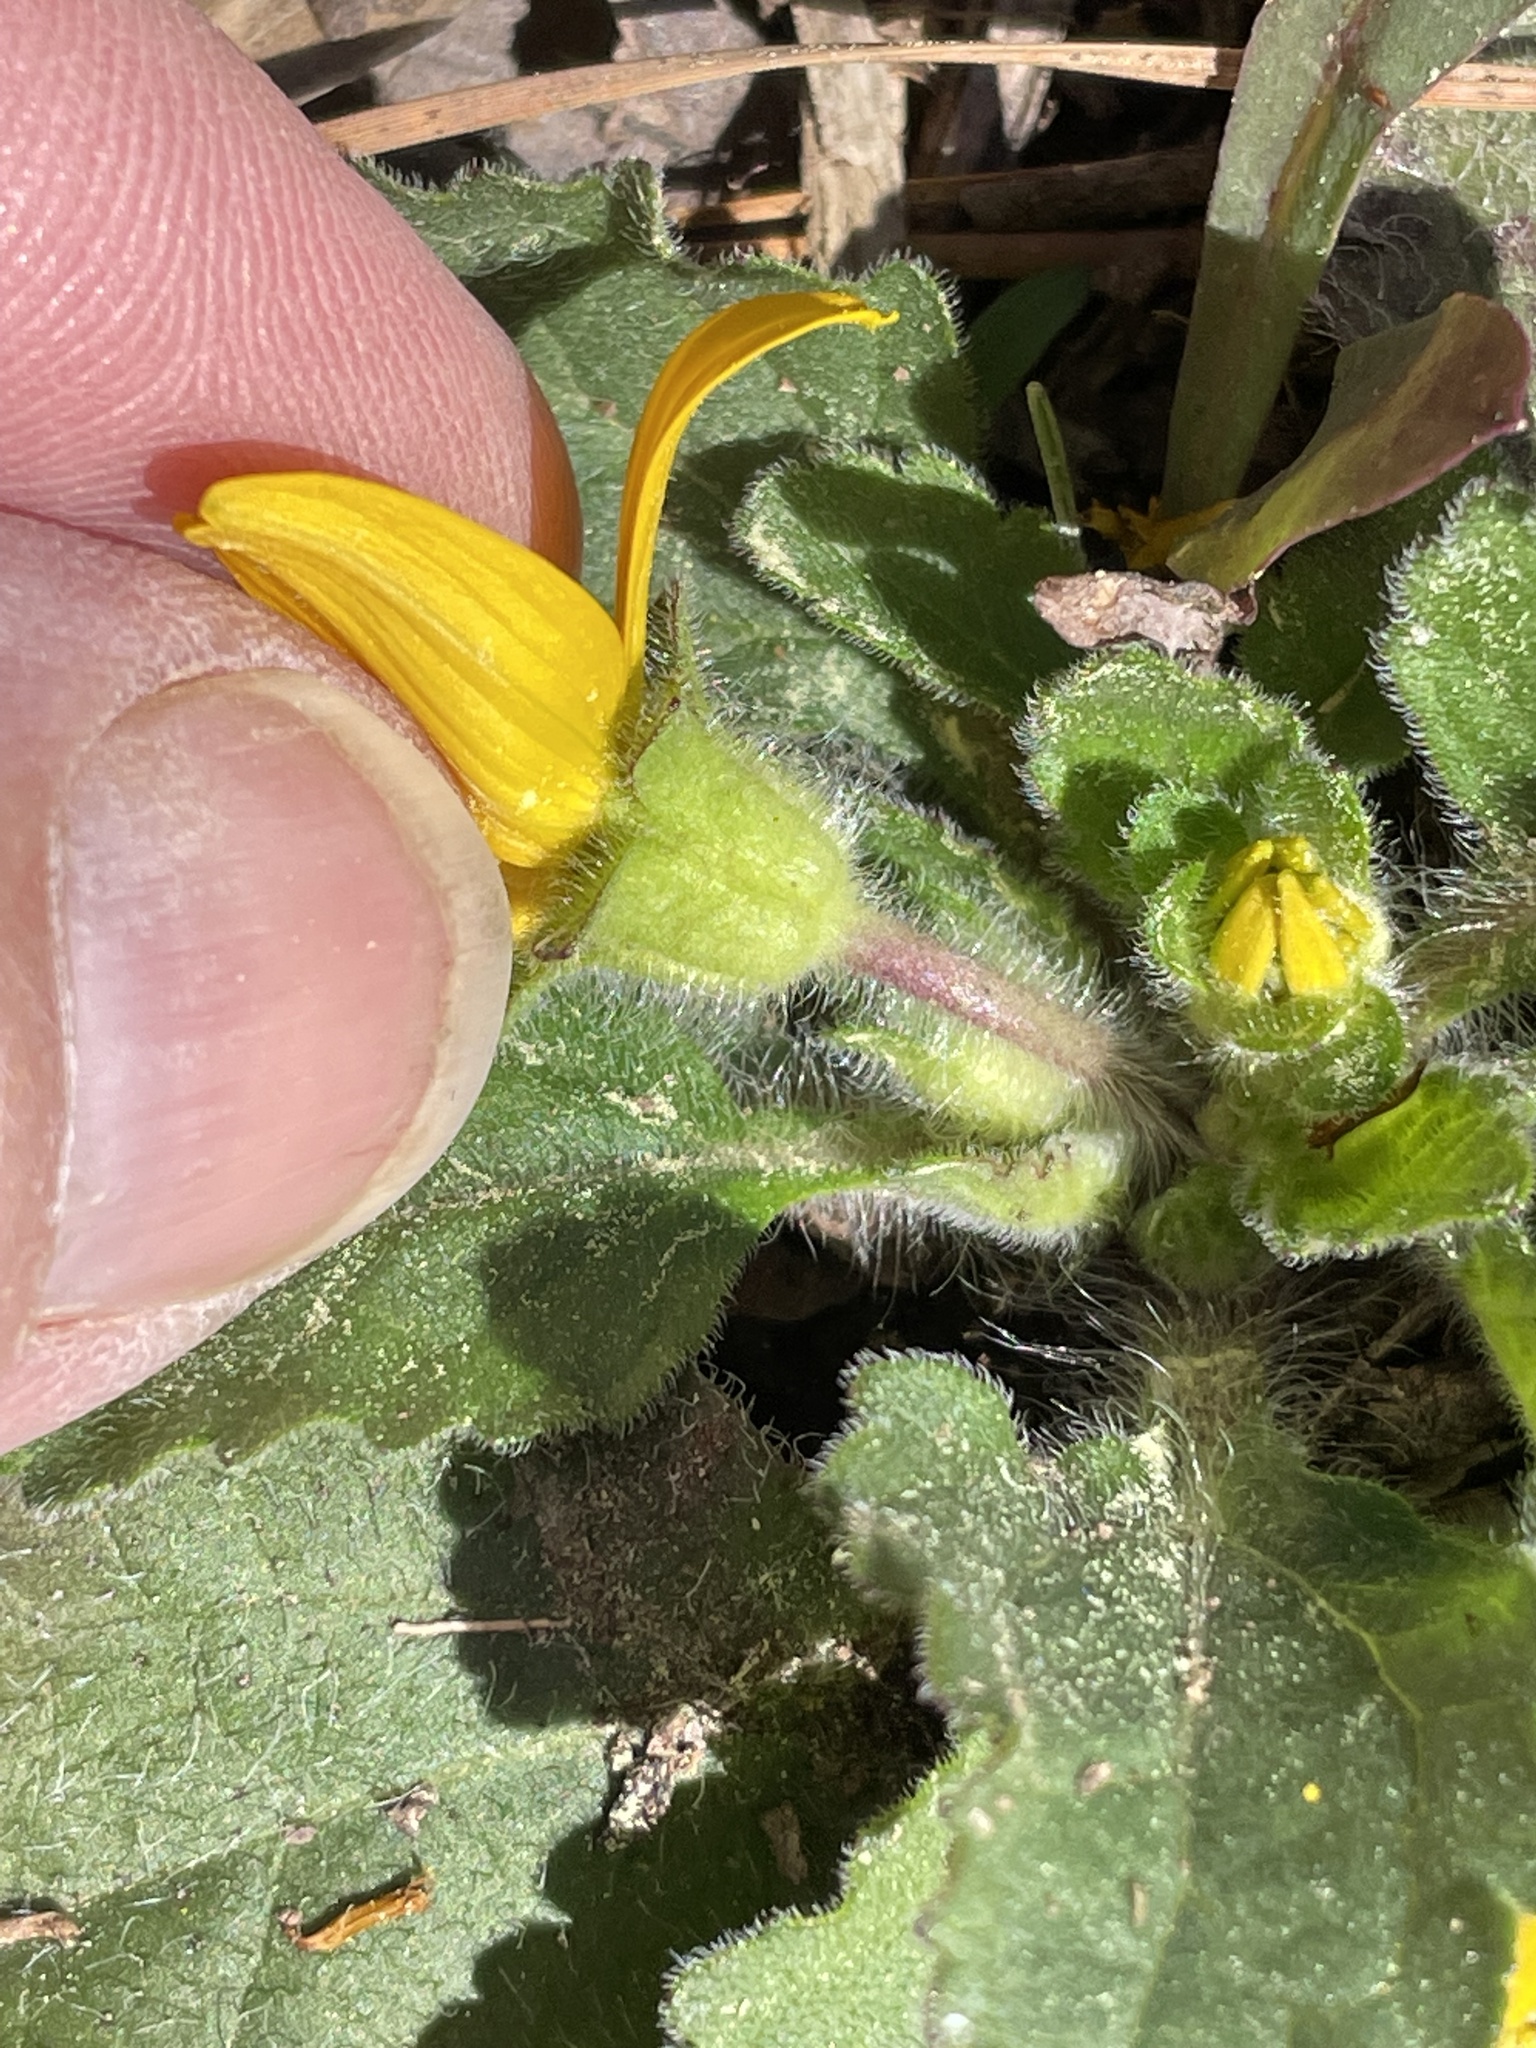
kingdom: Plantae
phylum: Tracheophyta
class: Magnoliopsida
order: Asterales
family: Asteraceae
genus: Chrysogonum
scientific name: Chrysogonum virginianum
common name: Golden-knee
